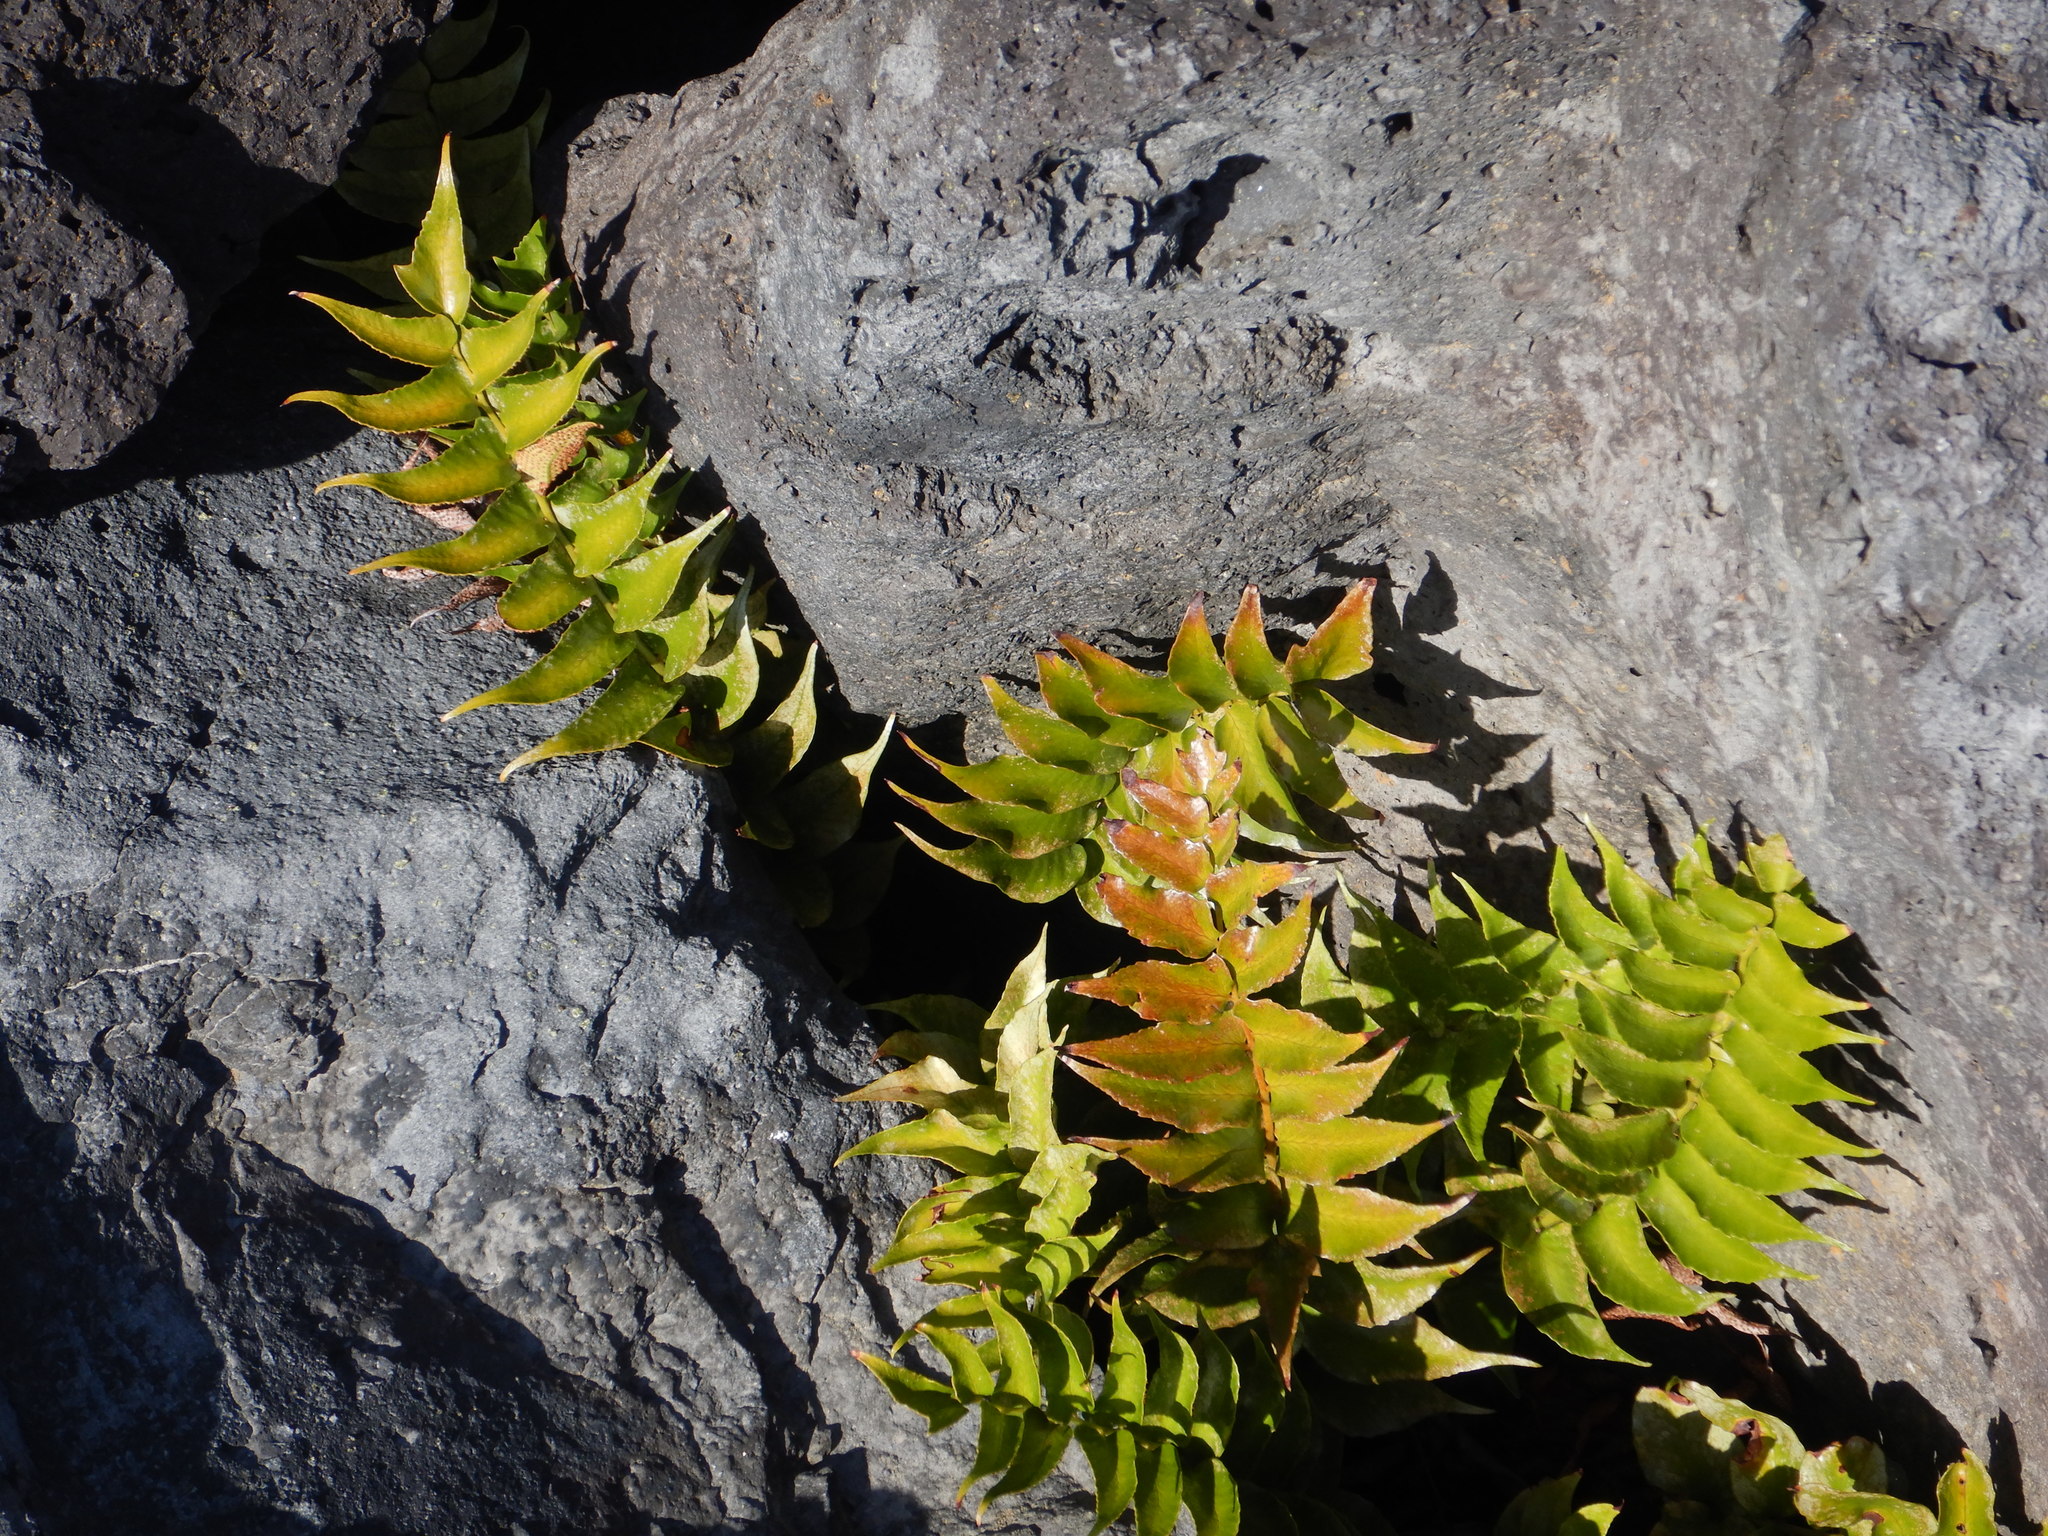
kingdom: Plantae
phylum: Tracheophyta
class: Polypodiopsida
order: Polypodiales
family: Dryopteridaceae
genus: Cyrtomium
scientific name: Cyrtomium falcatum
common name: House holly-fern
